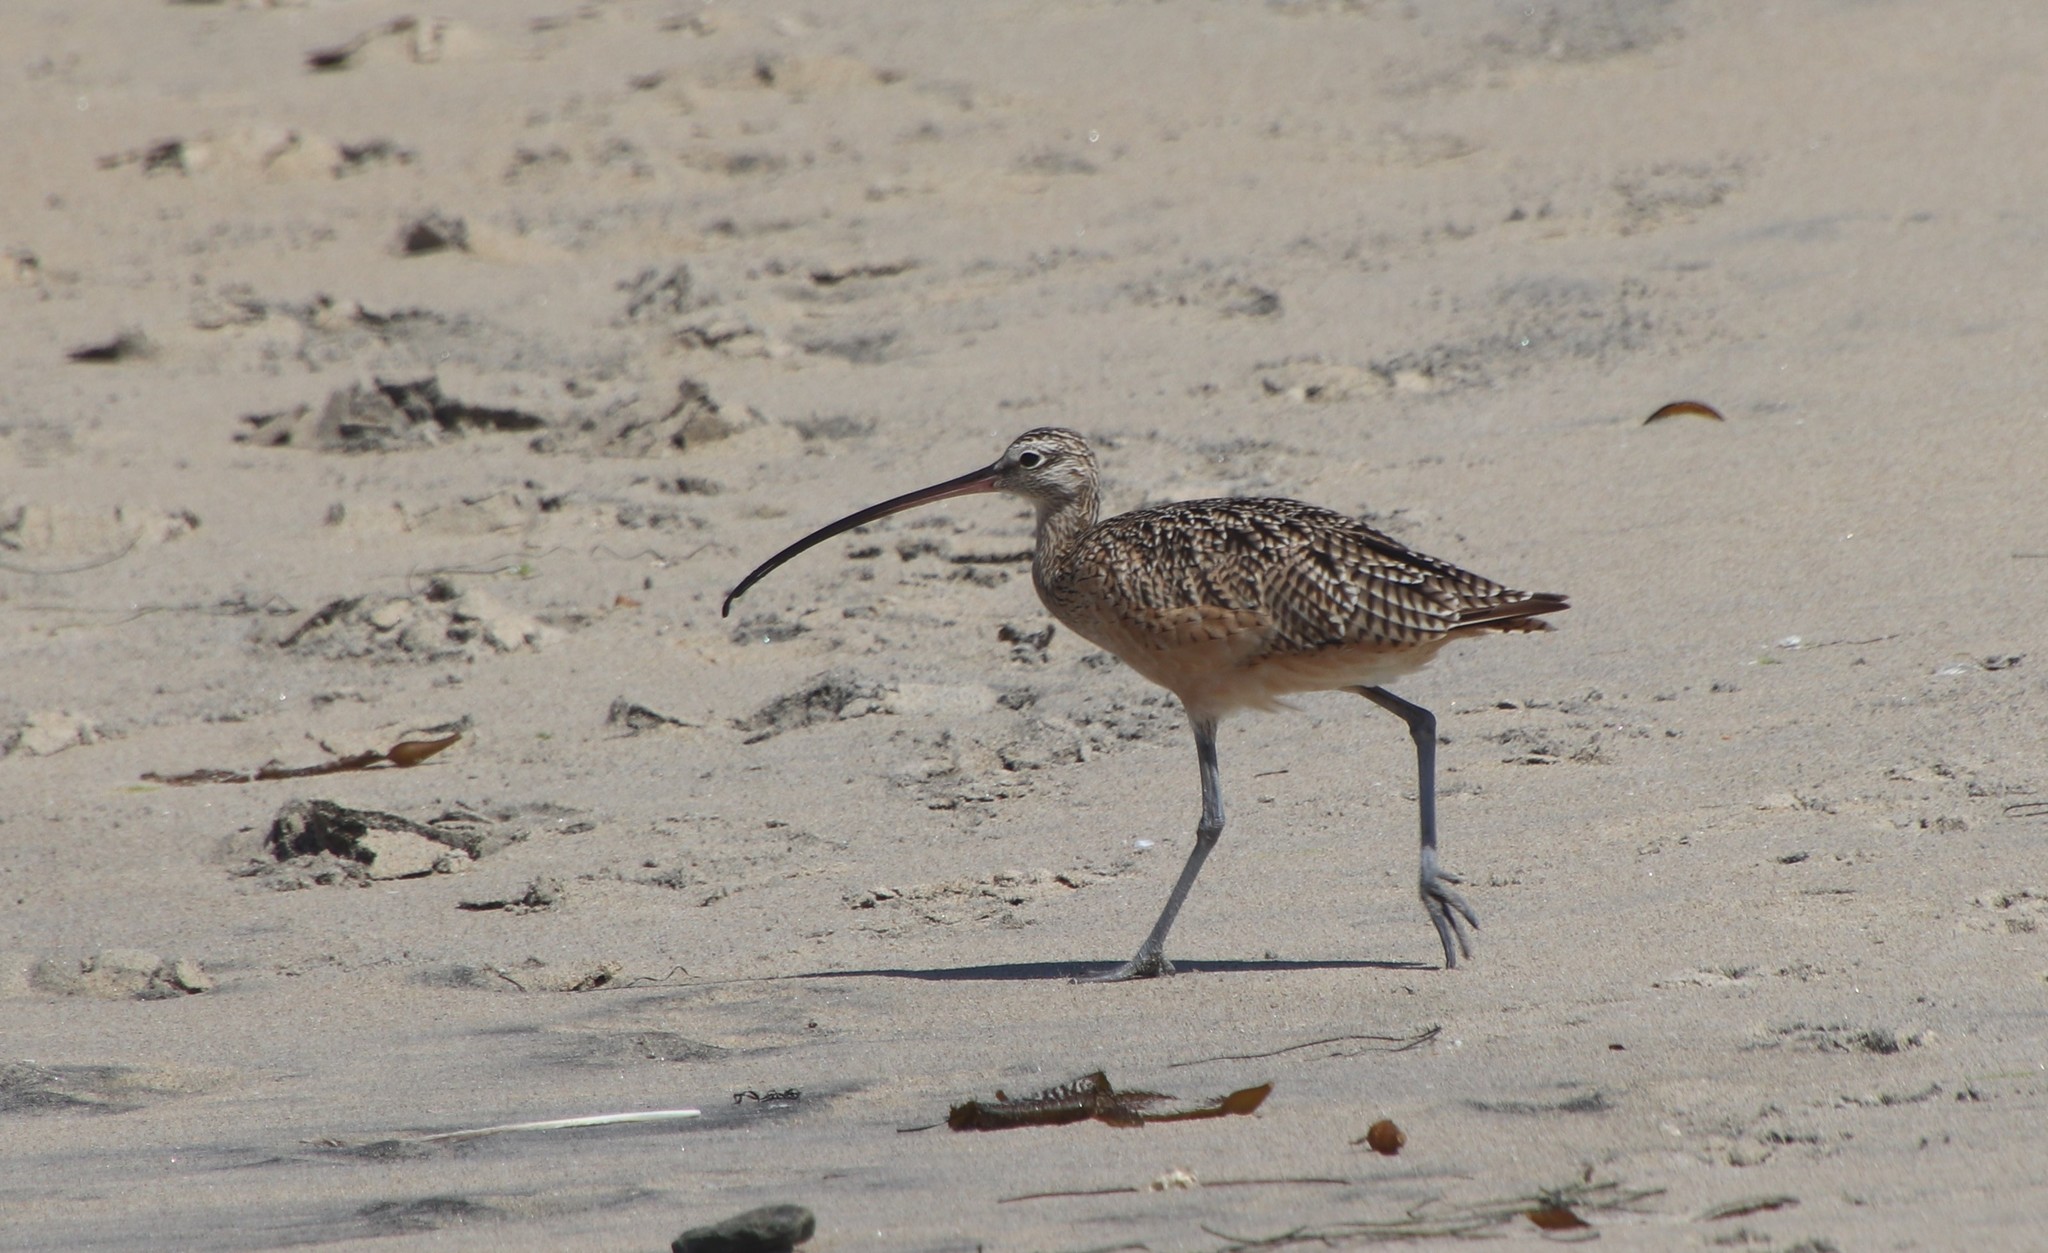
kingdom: Animalia
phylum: Chordata
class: Aves
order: Charadriiformes
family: Scolopacidae
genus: Numenius
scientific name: Numenius americanus
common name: Long-billed curlew
